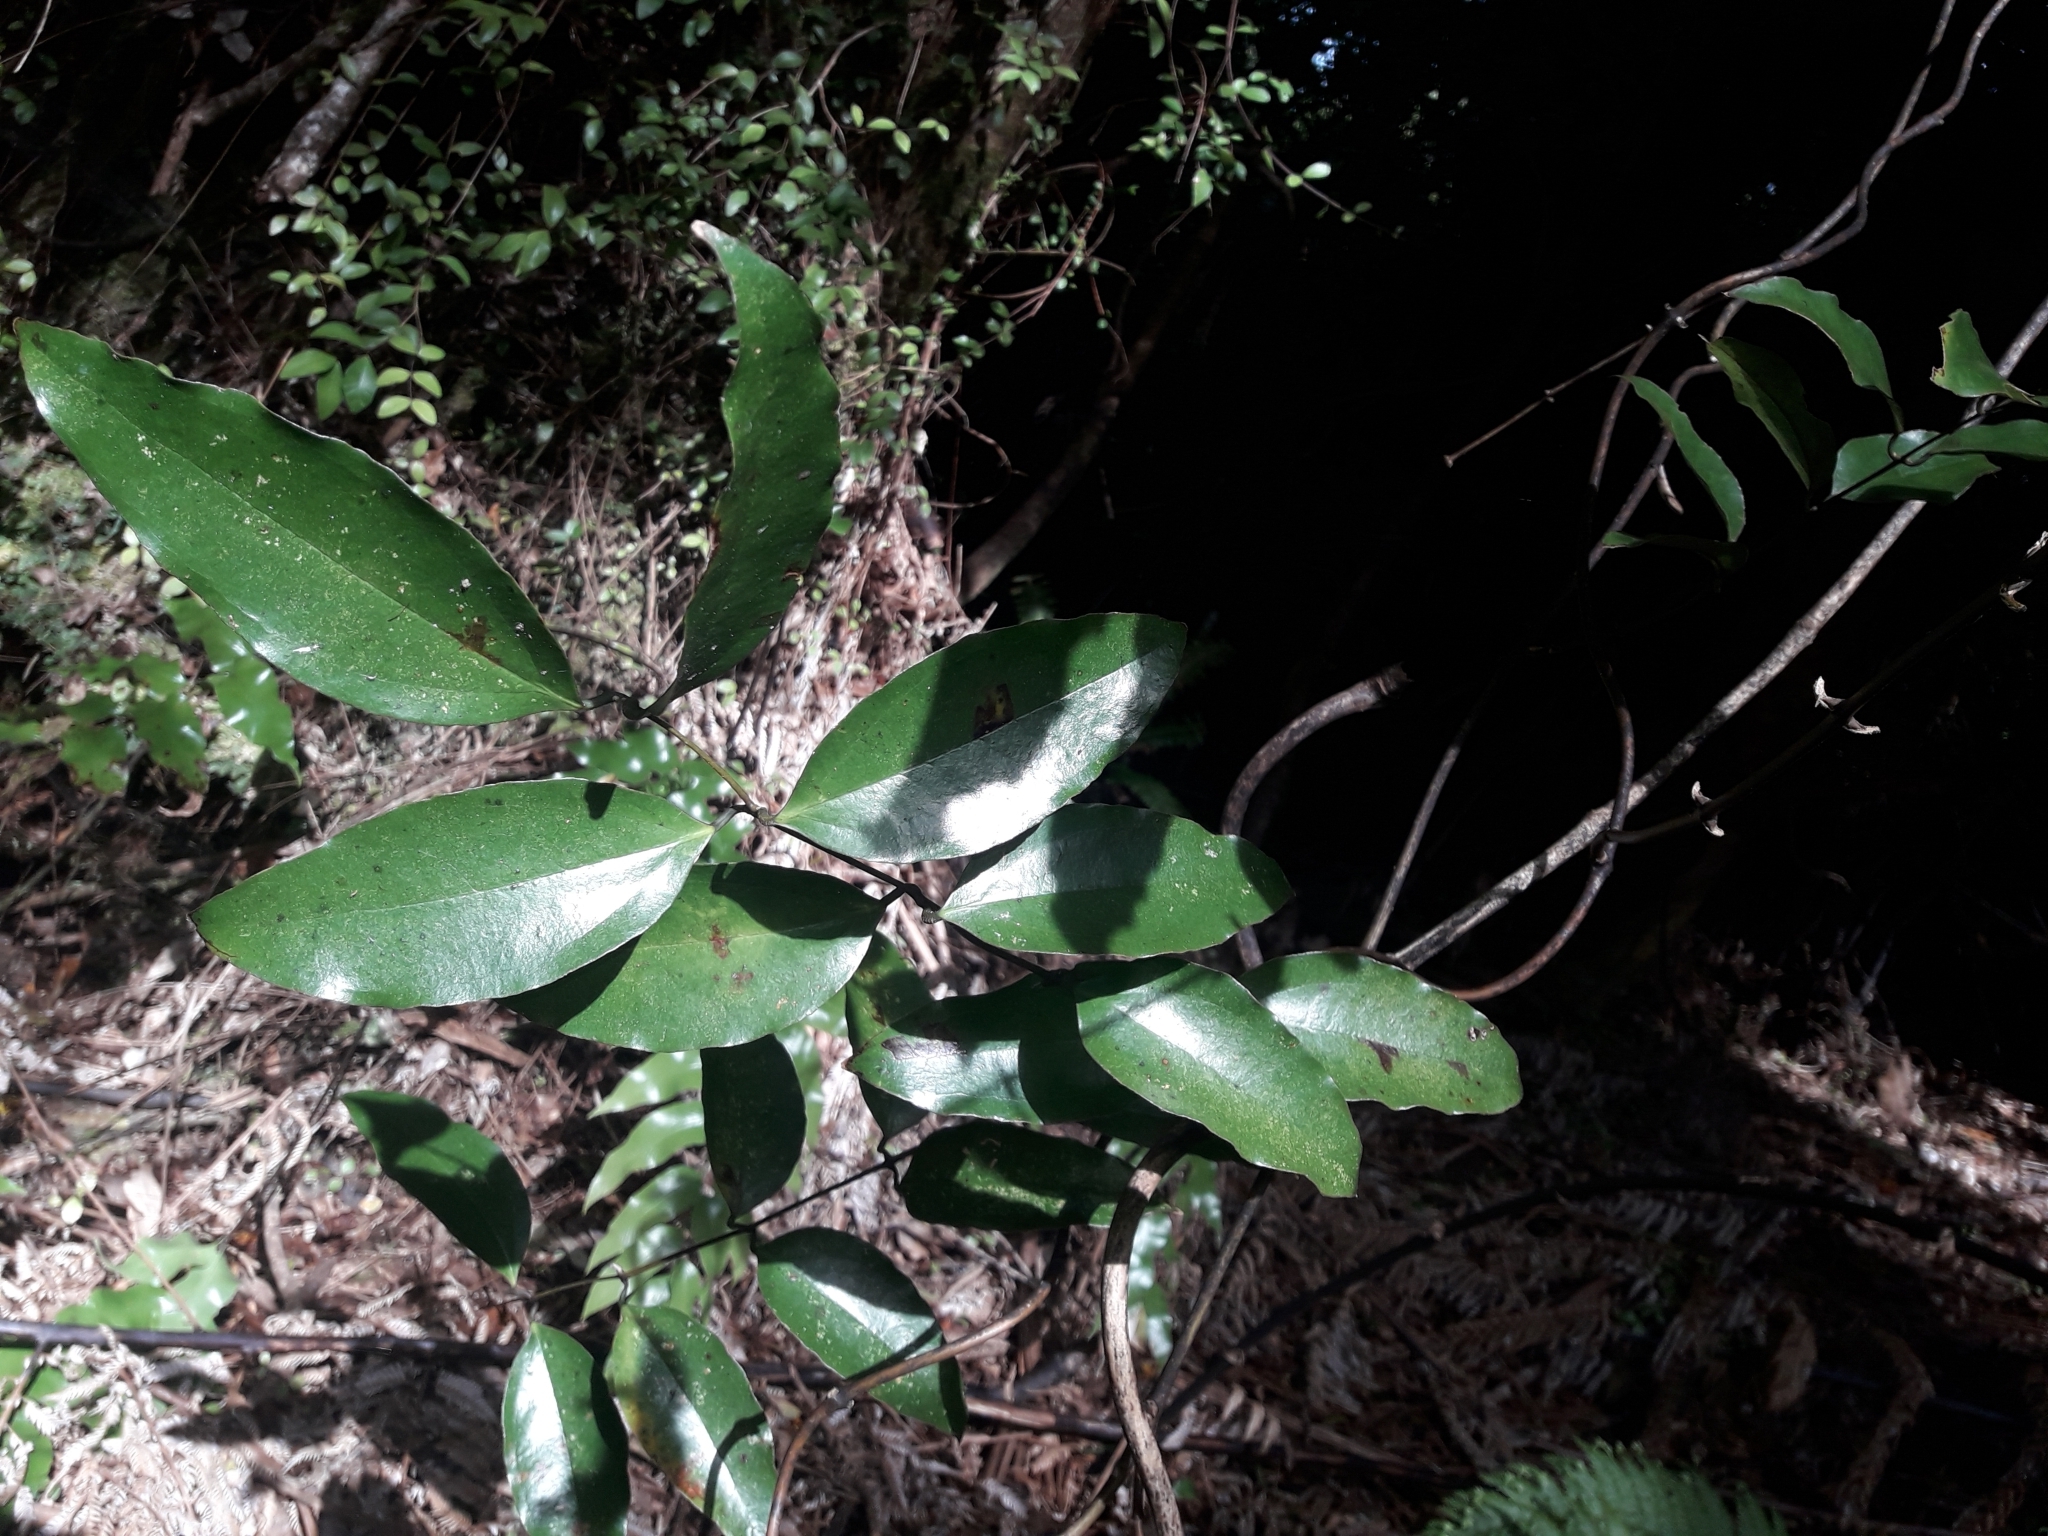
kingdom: Plantae
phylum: Tracheophyta
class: Liliopsida
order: Liliales
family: Ripogonaceae
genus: Ripogonum
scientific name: Ripogonum scandens
